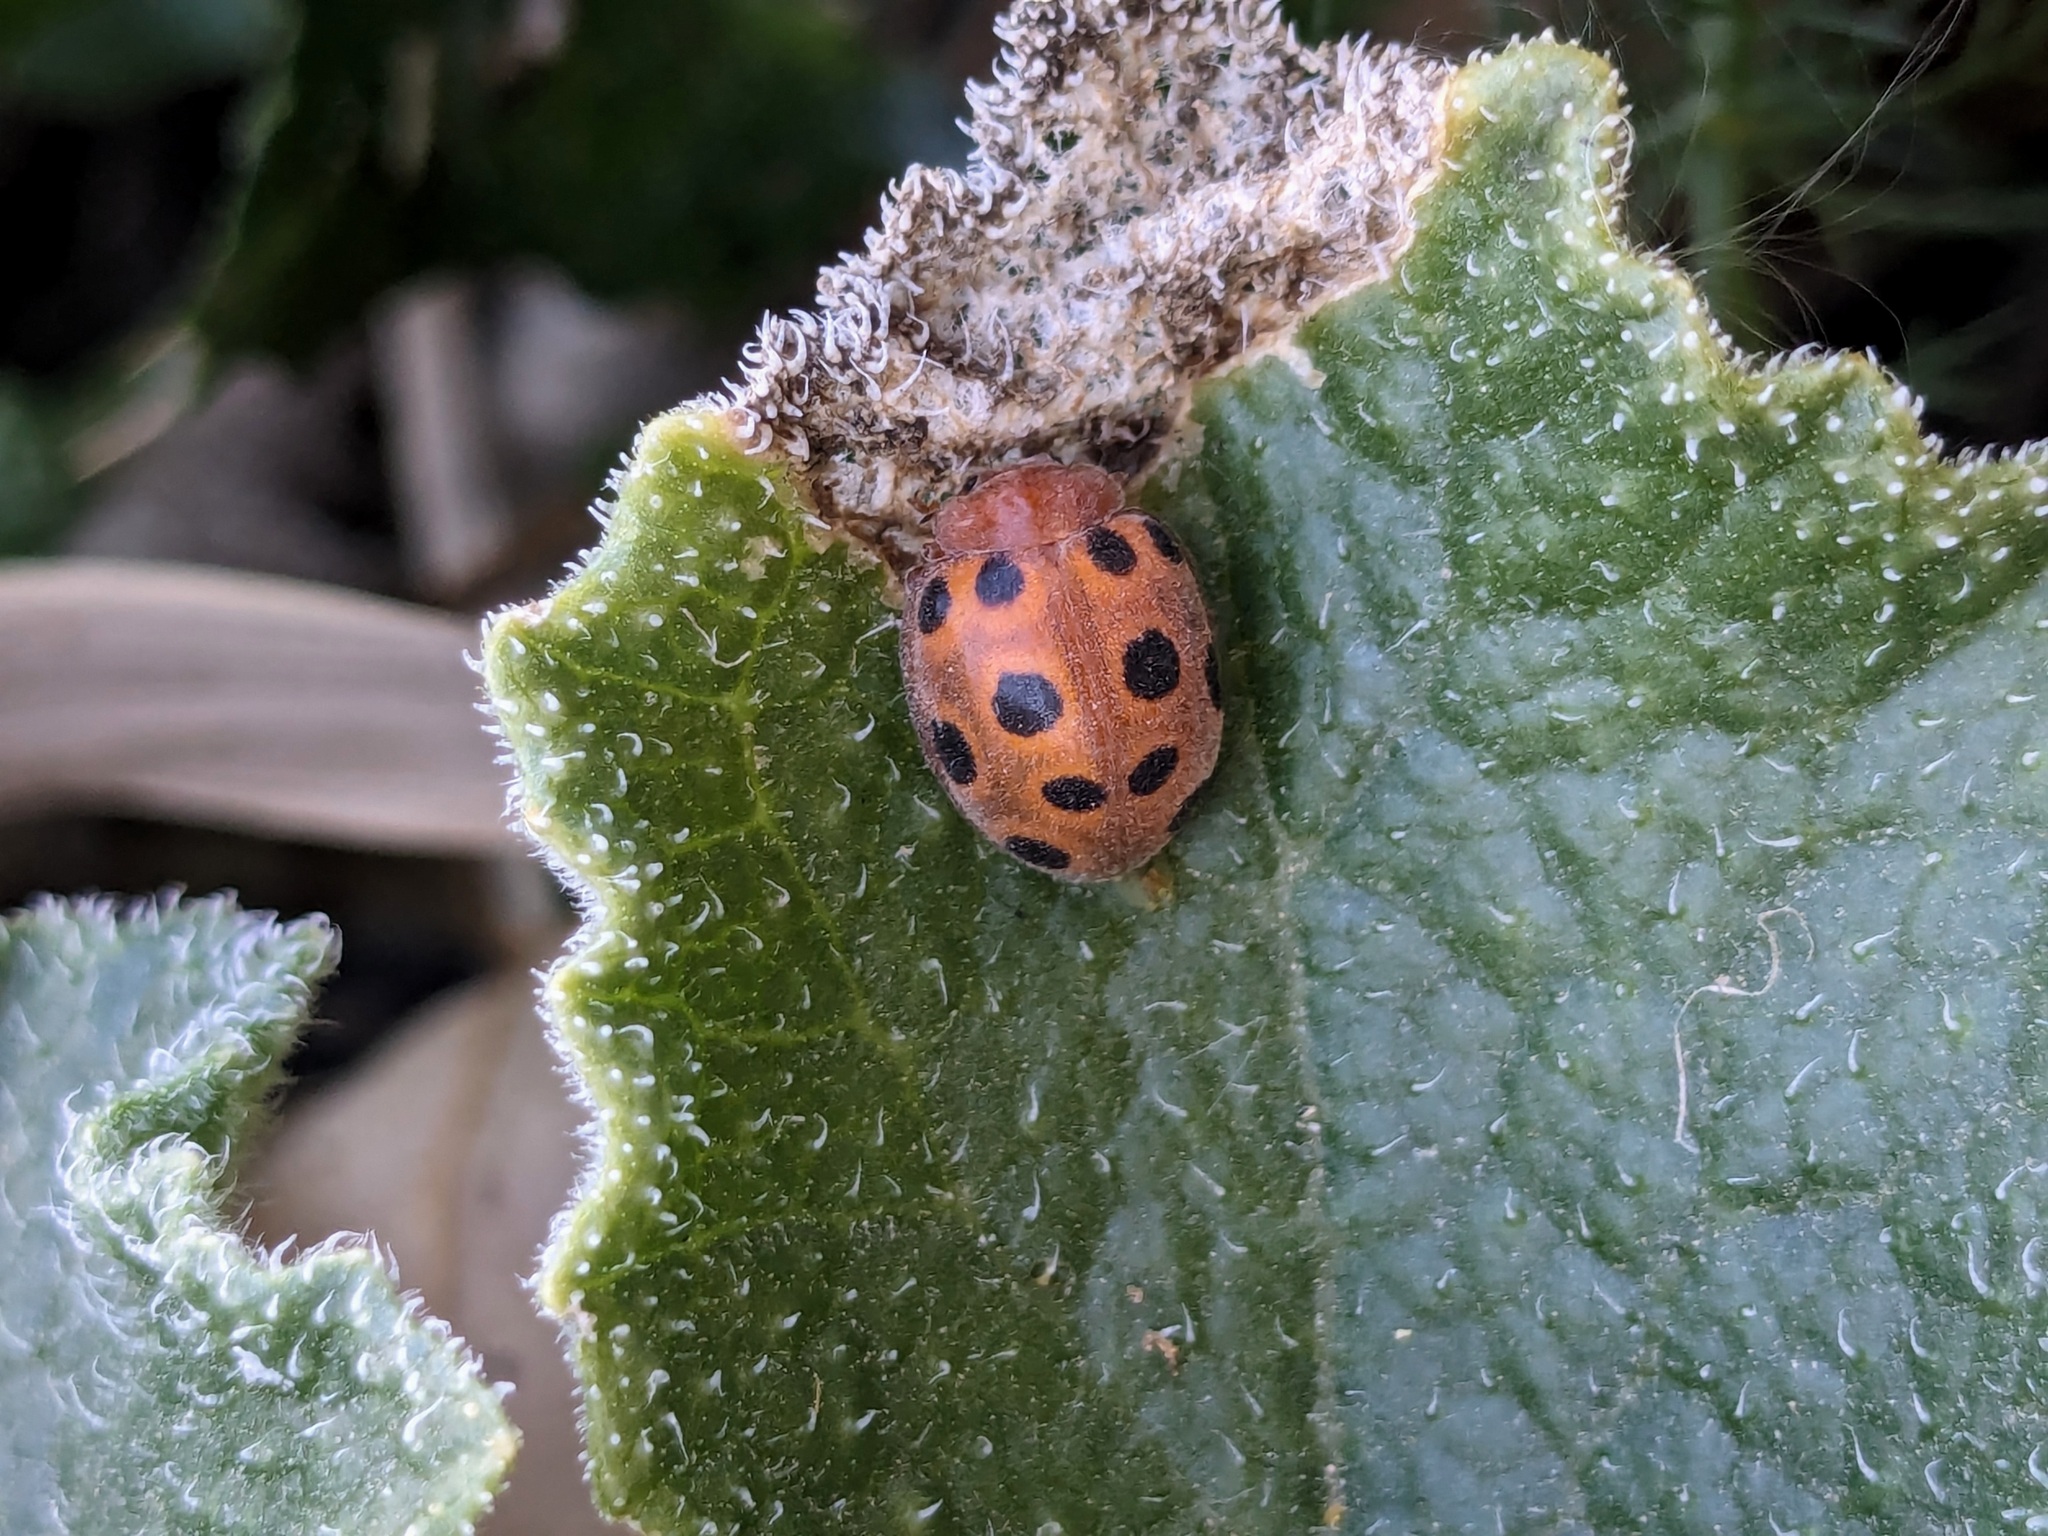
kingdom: Animalia
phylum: Arthropoda
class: Insecta
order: Coleoptera
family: Coccinellidae
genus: Chnootriba
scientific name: Chnootriba elaterii
